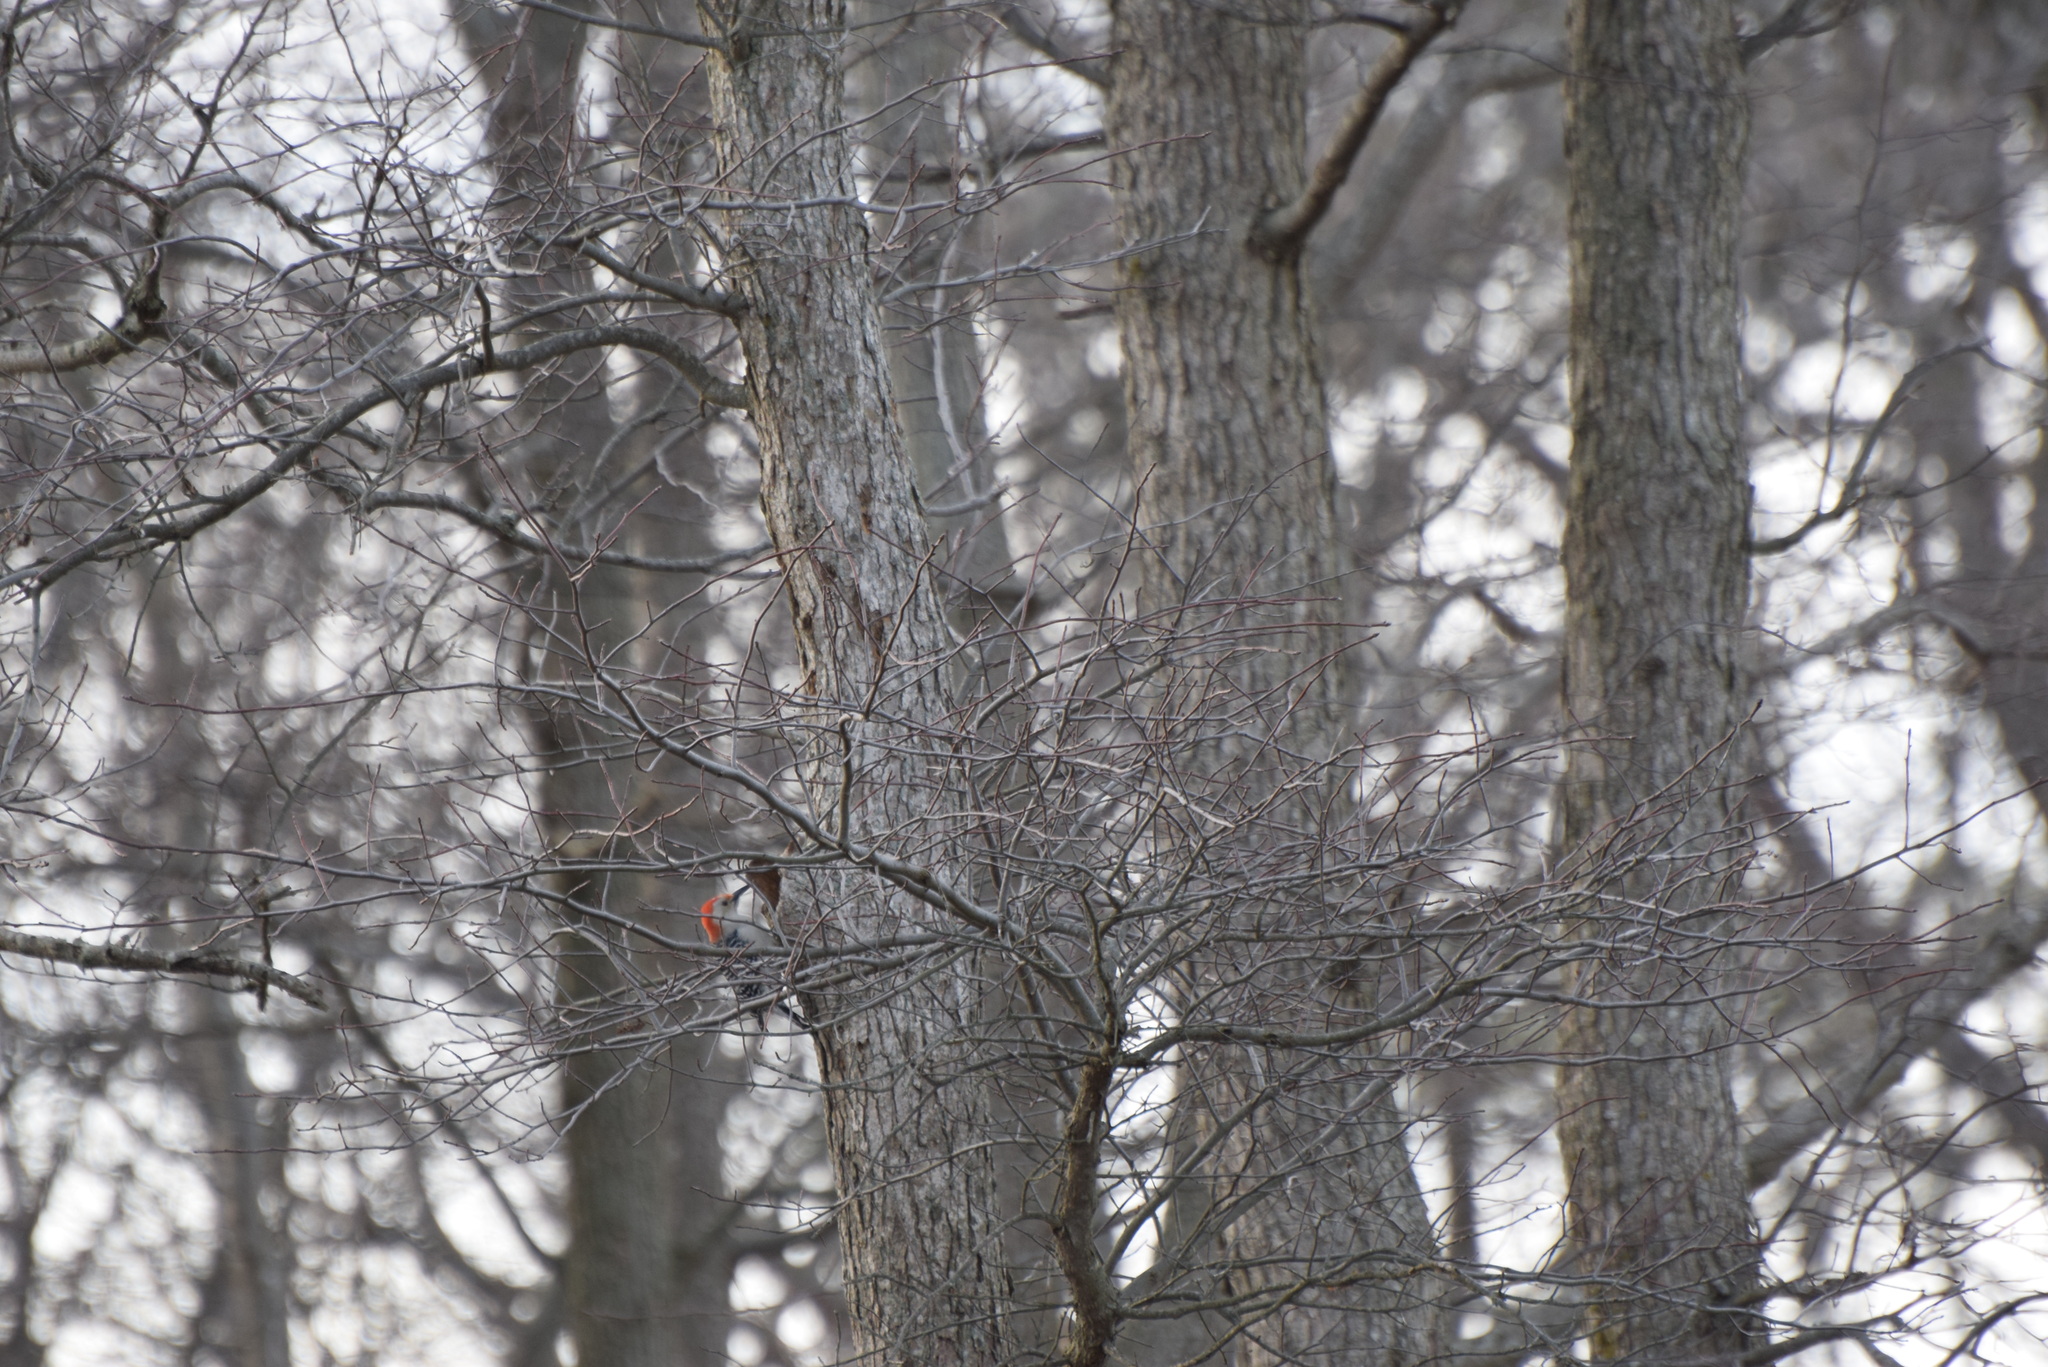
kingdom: Animalia
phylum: Chordata
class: Aves
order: Piciformes
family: Picidae
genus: Melanerpes
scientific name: Melanerpes carolinus
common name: Red-bellied woodpecker
